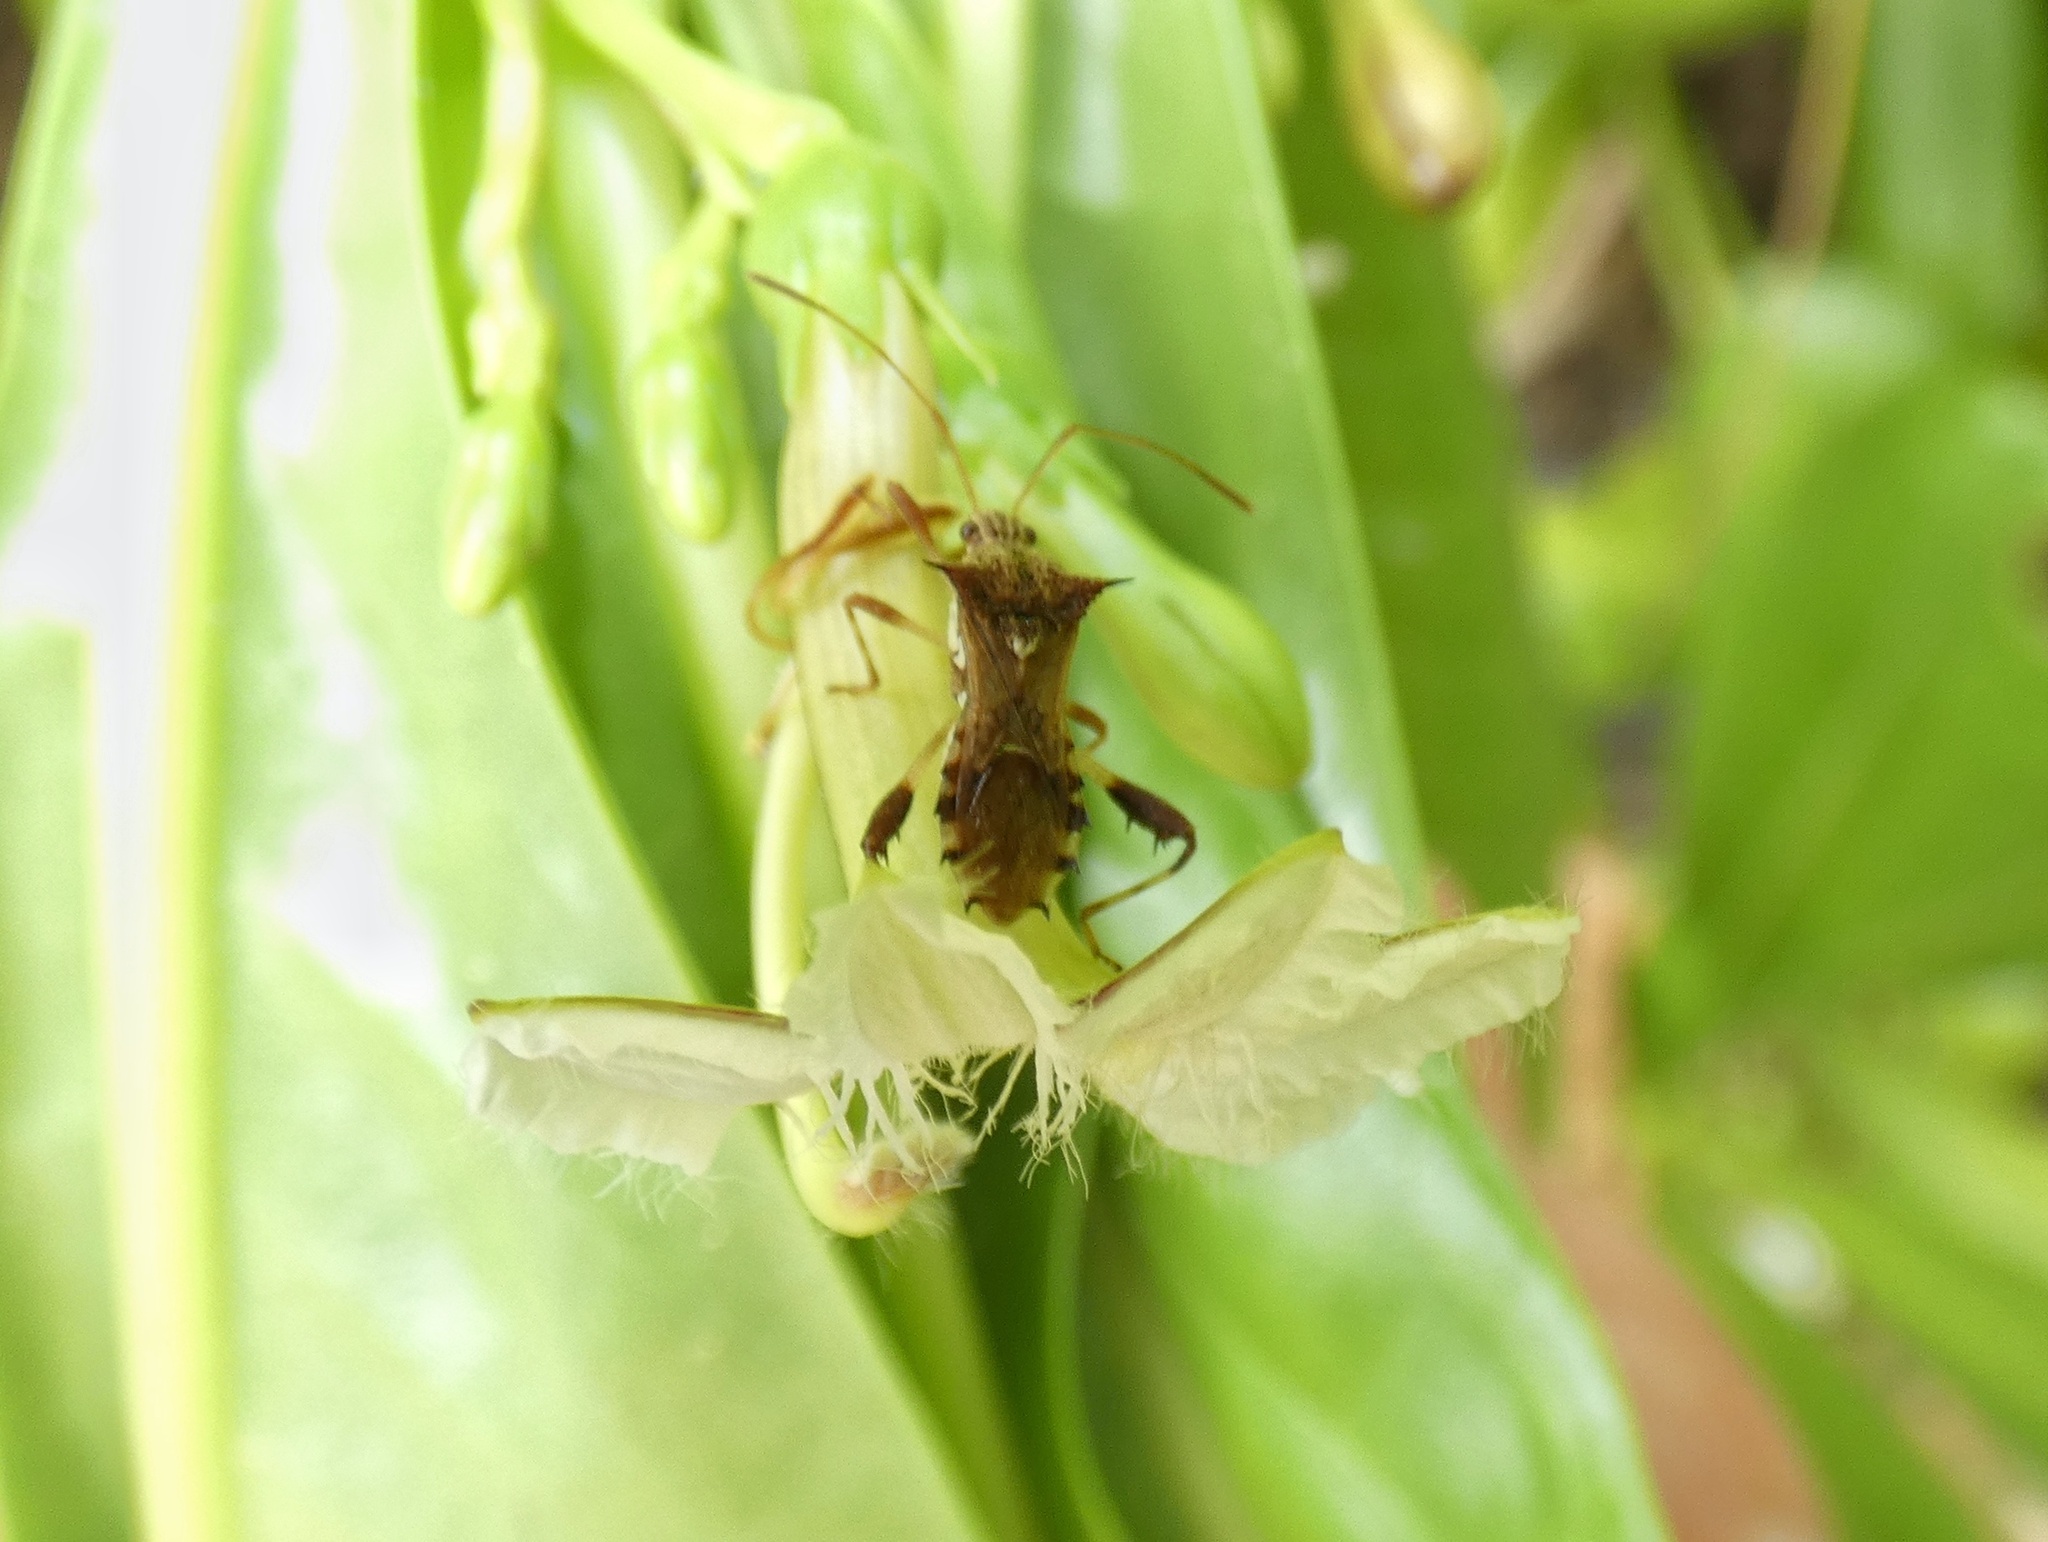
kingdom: Animalia
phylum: Arthropoda
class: Insecta
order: Hemiptera
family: Coreidae
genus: Gralliclava
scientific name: Gralliclava australiensis
